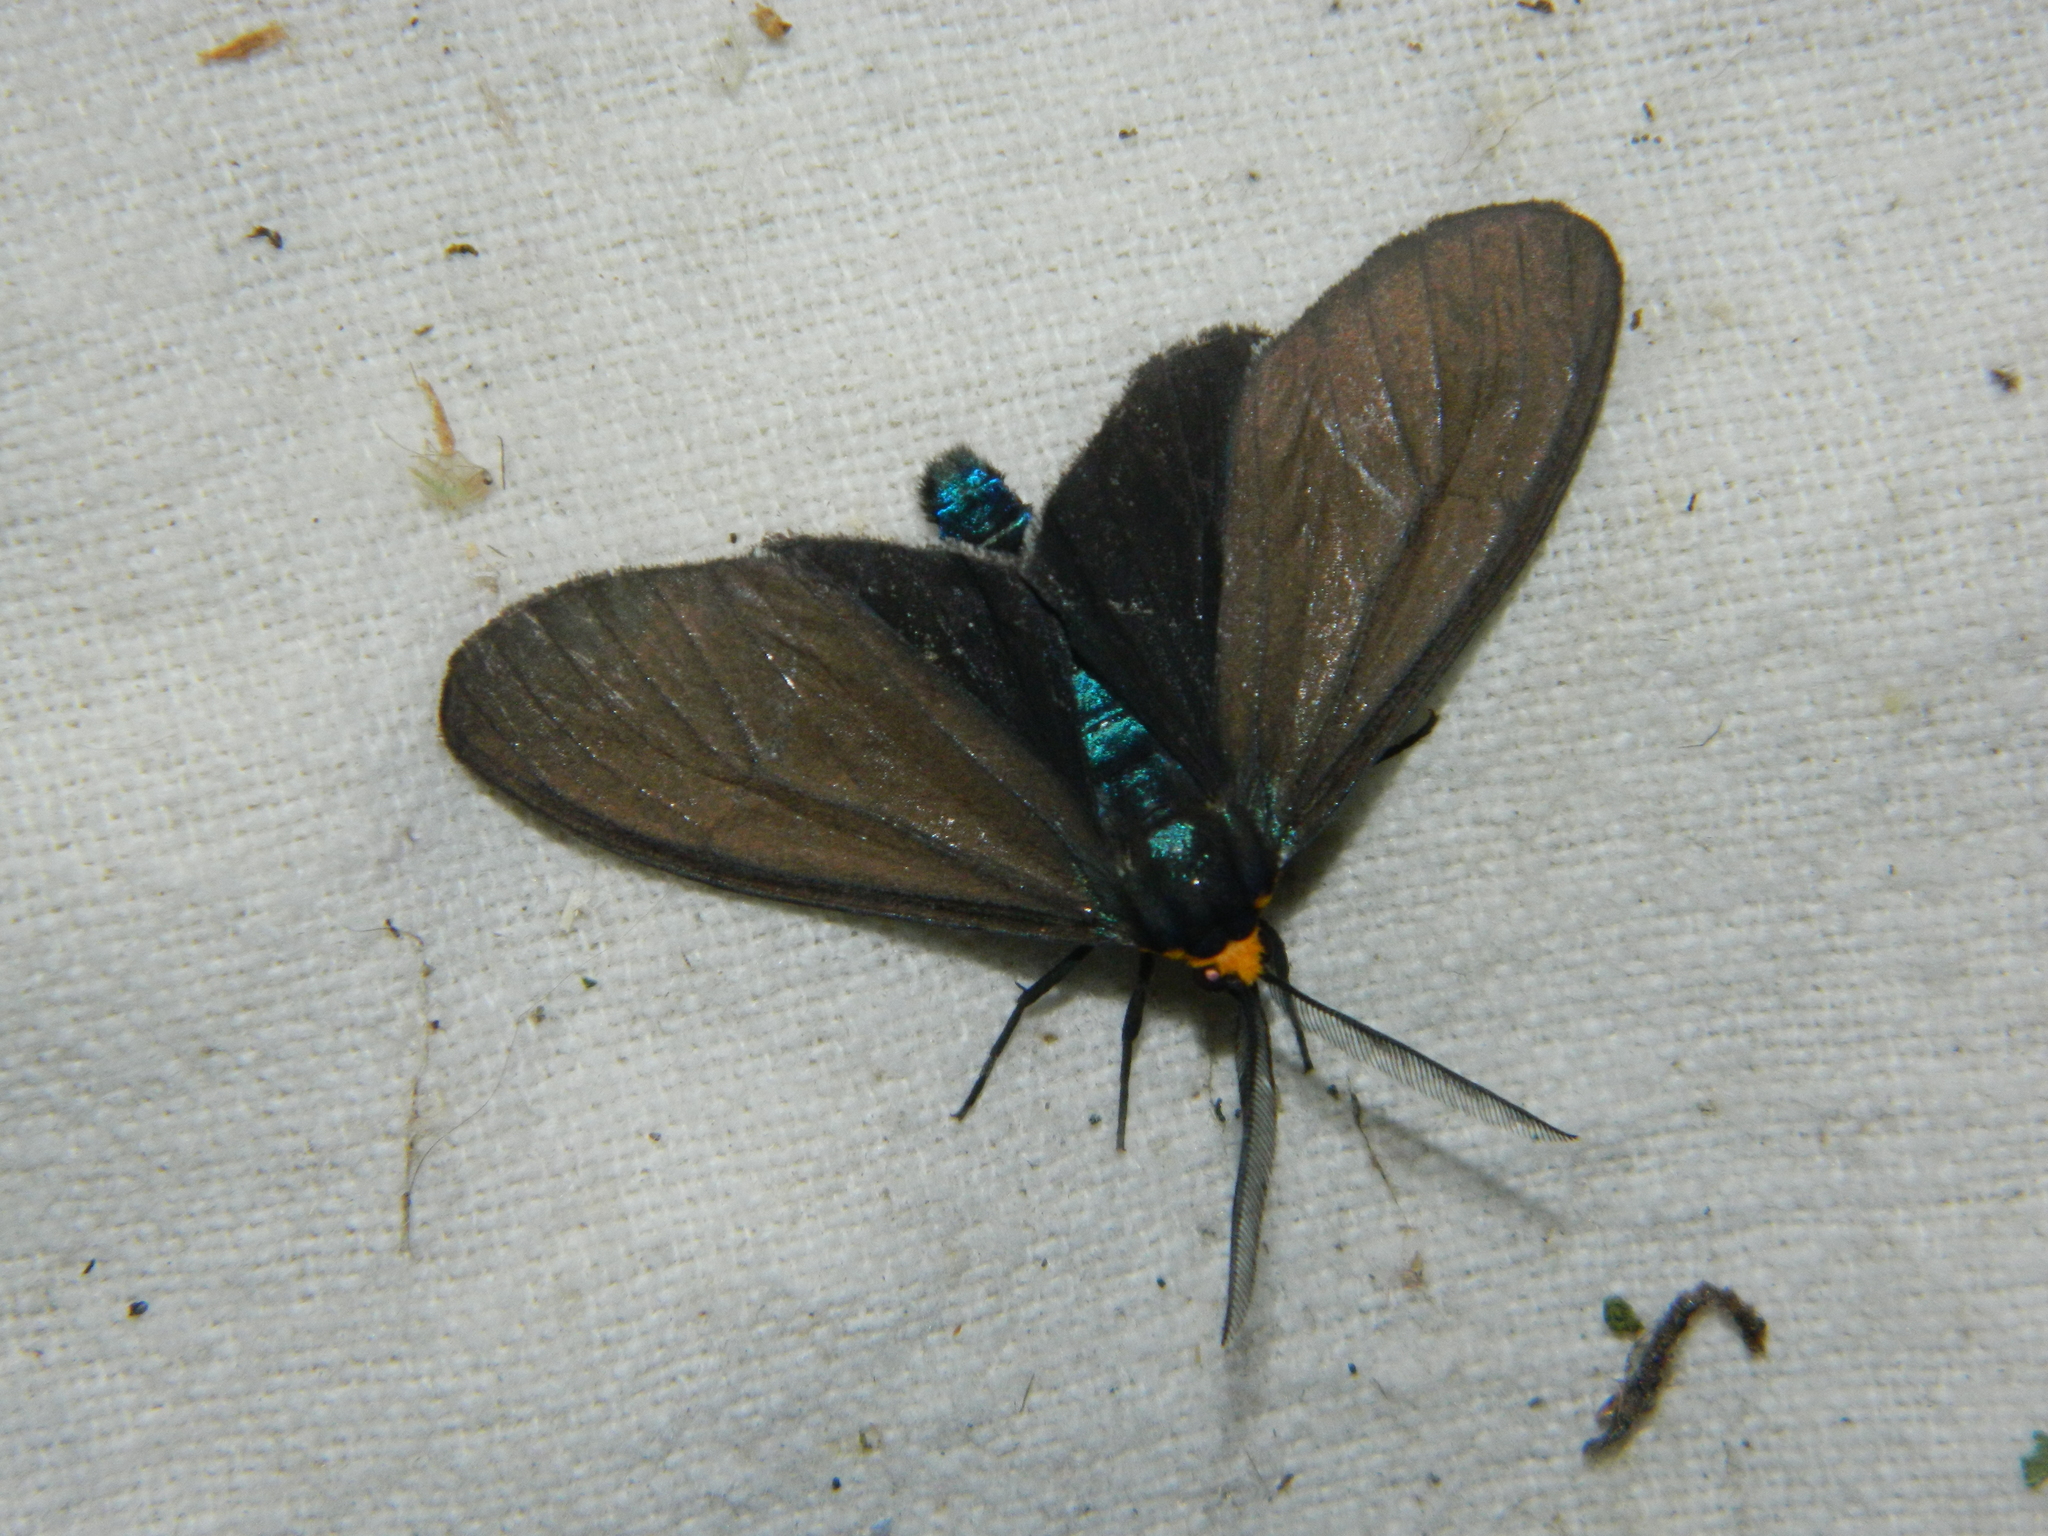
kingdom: Animalia
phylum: Arthropoda
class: Insecta
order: Lepidoptera
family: Erebidae
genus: Ctenucha
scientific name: Ctenucha virginica
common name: Virginia ctenucha moth
